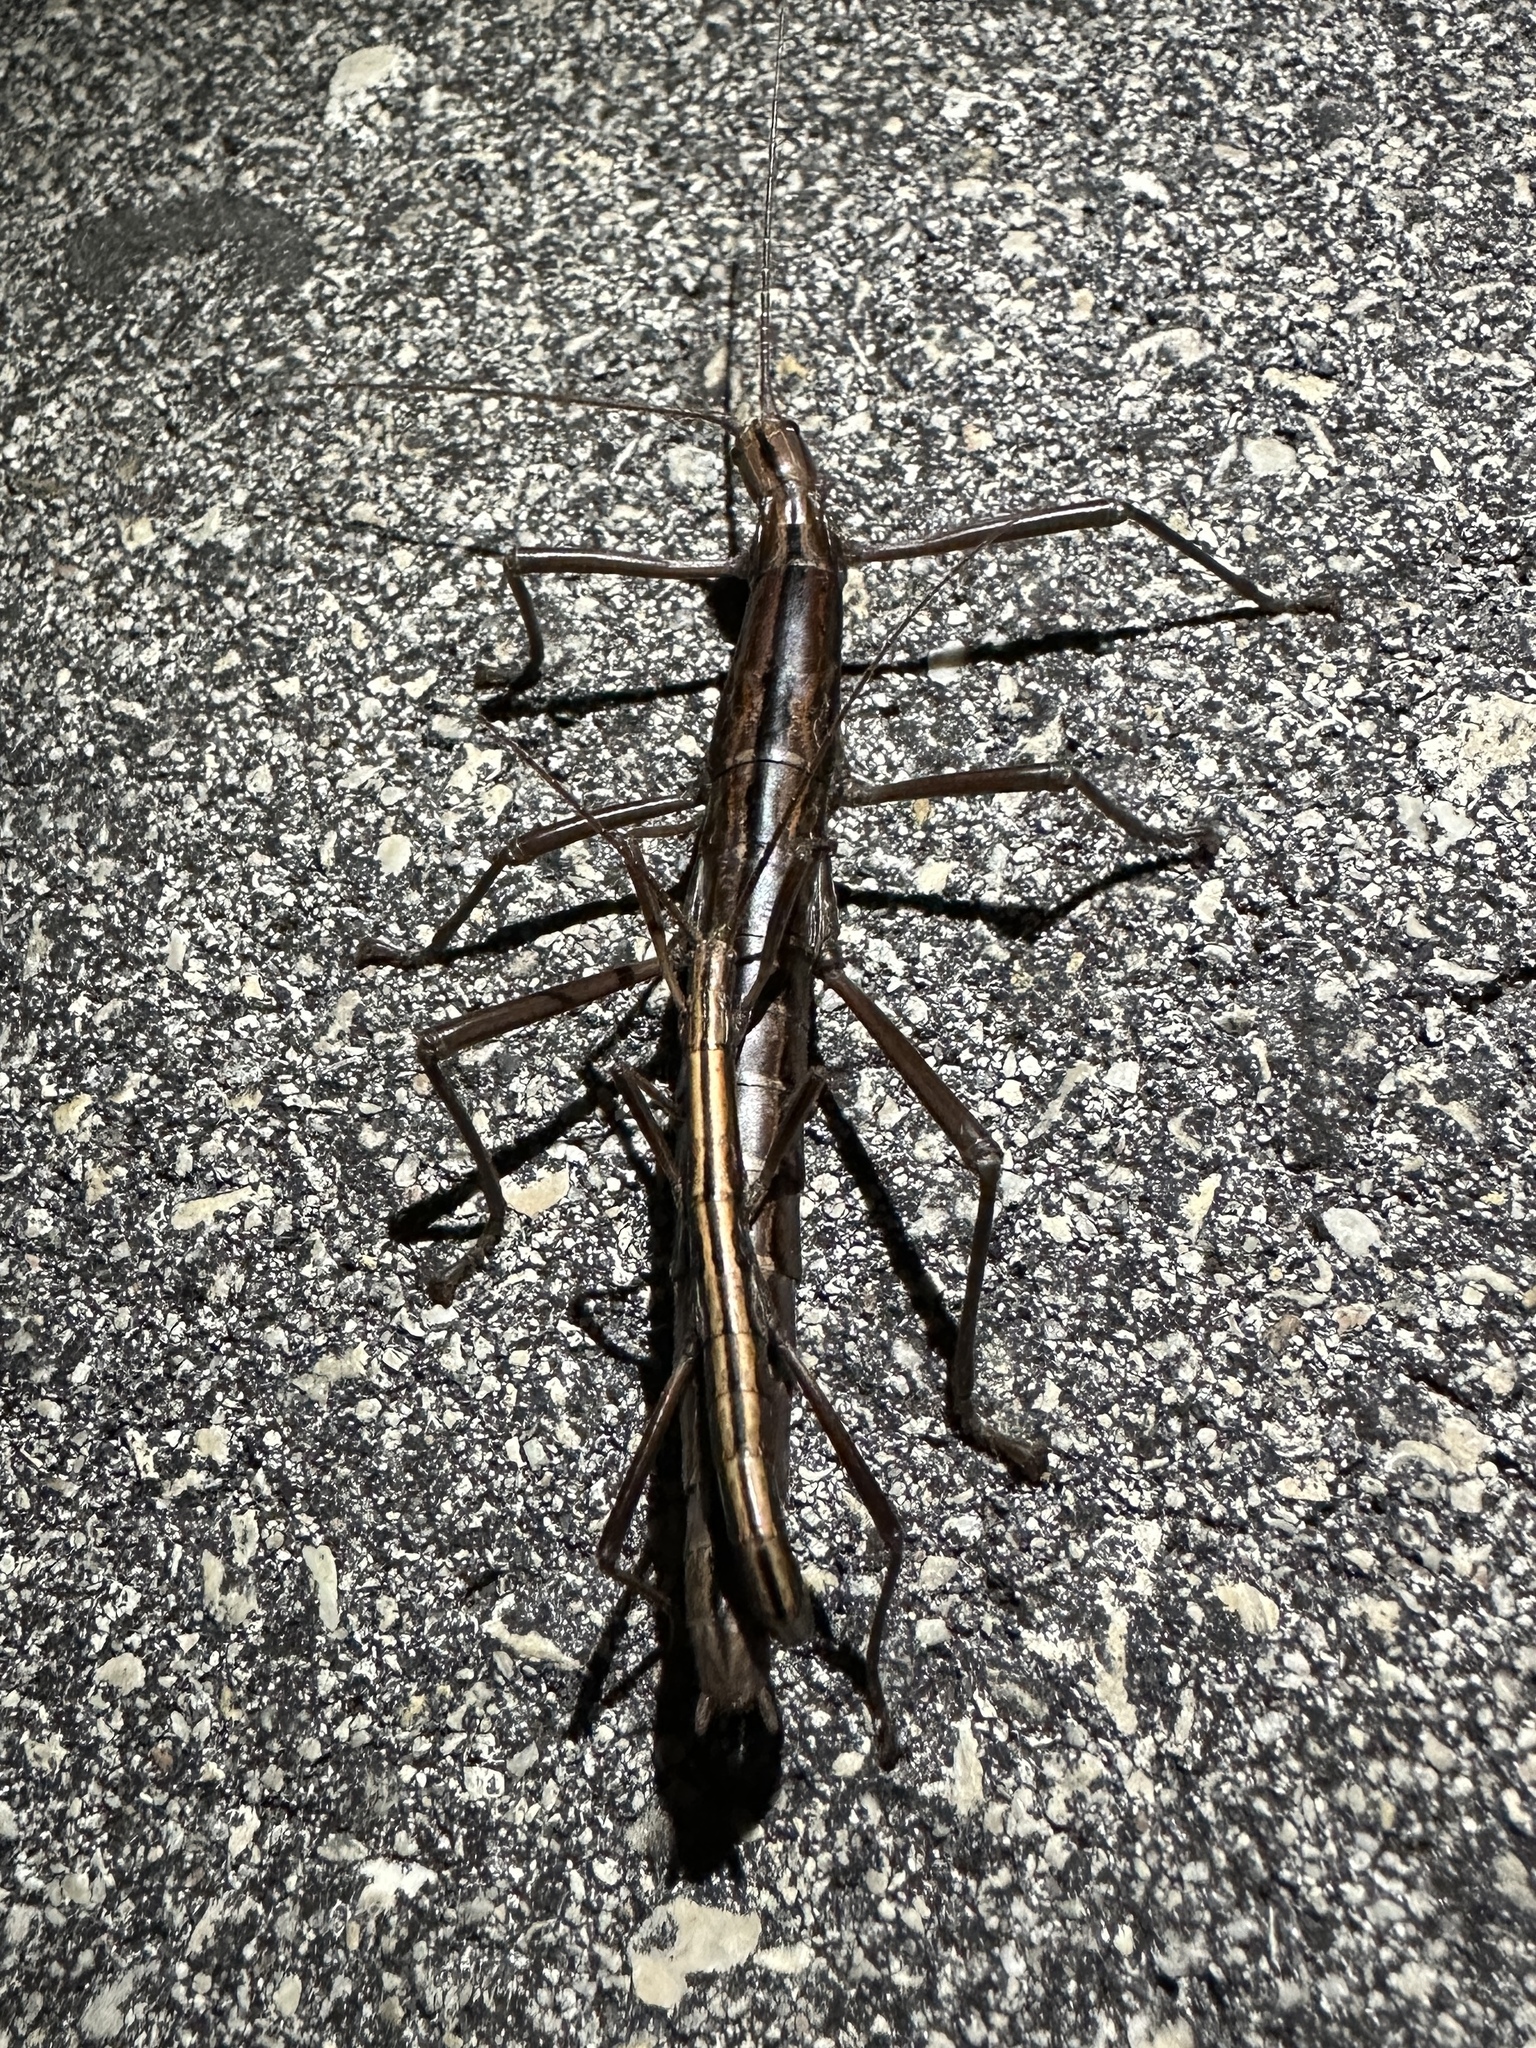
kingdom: Animalia
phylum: Arthropoda
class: Insecta
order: Phasmida
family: Pseudophasmatidae
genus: Anisomorpha
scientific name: Anisomorpha buprestoides
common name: Florida stick insect
